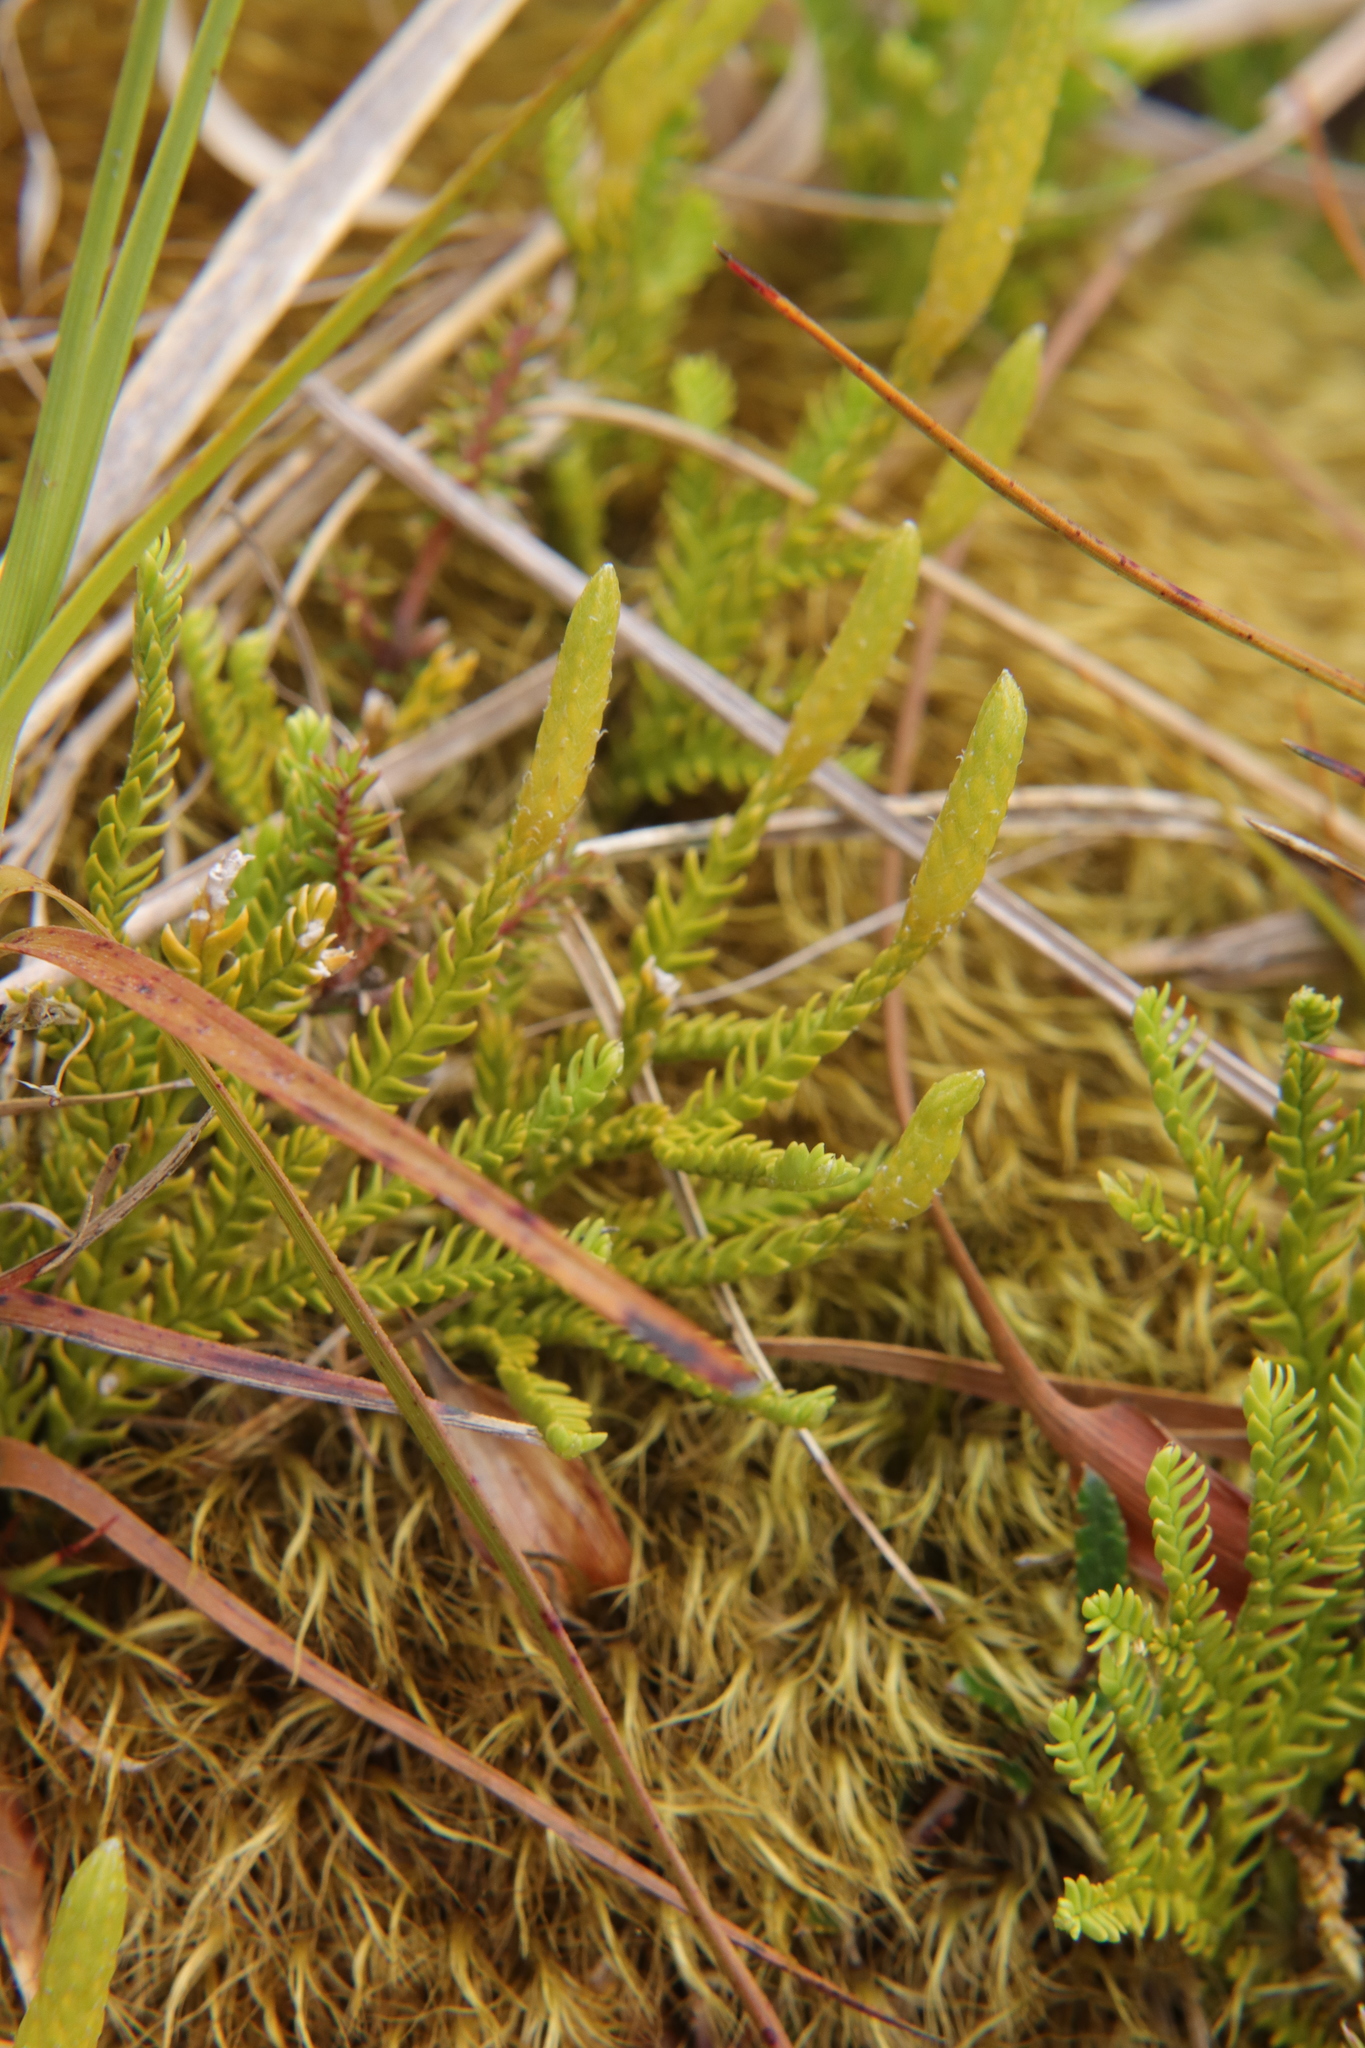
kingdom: Plantae
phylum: Tracheophyta
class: Lycopodiopsida
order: Lycopodiales
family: Lycopodiaceae
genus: Diphasium
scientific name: Diphasium scariosum
